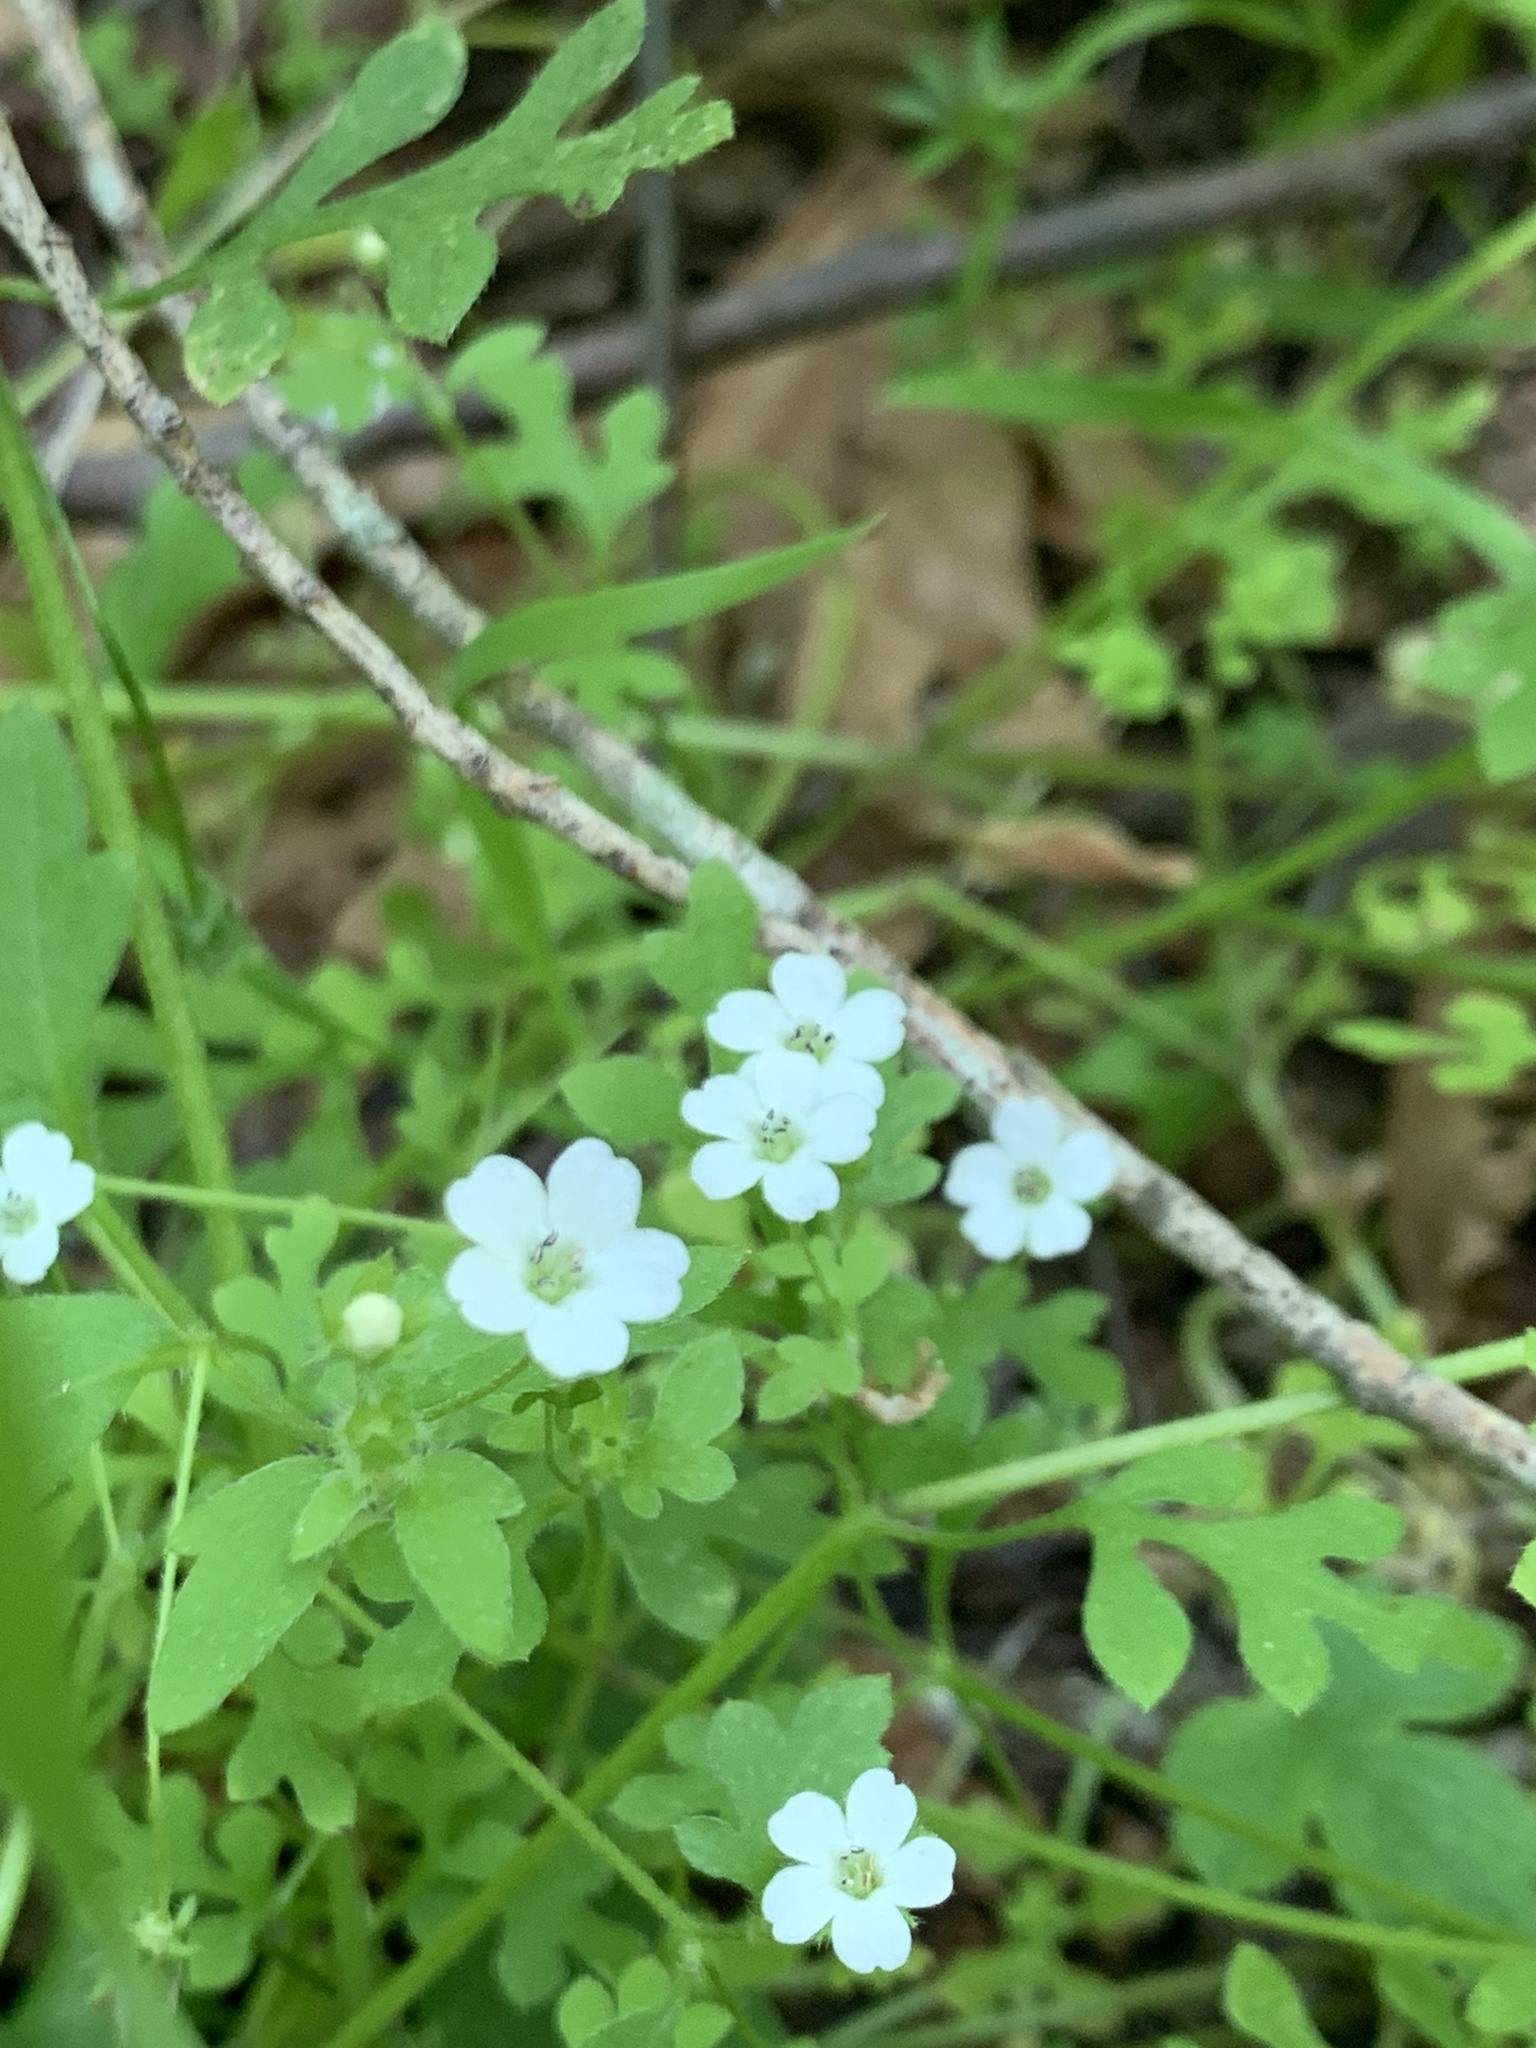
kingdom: Plantae
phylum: Tracheophyta
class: Magnoliopsida
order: Boraginales
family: Hydrophyllaceae
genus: Nemophila
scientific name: Nemophila heterophylla
